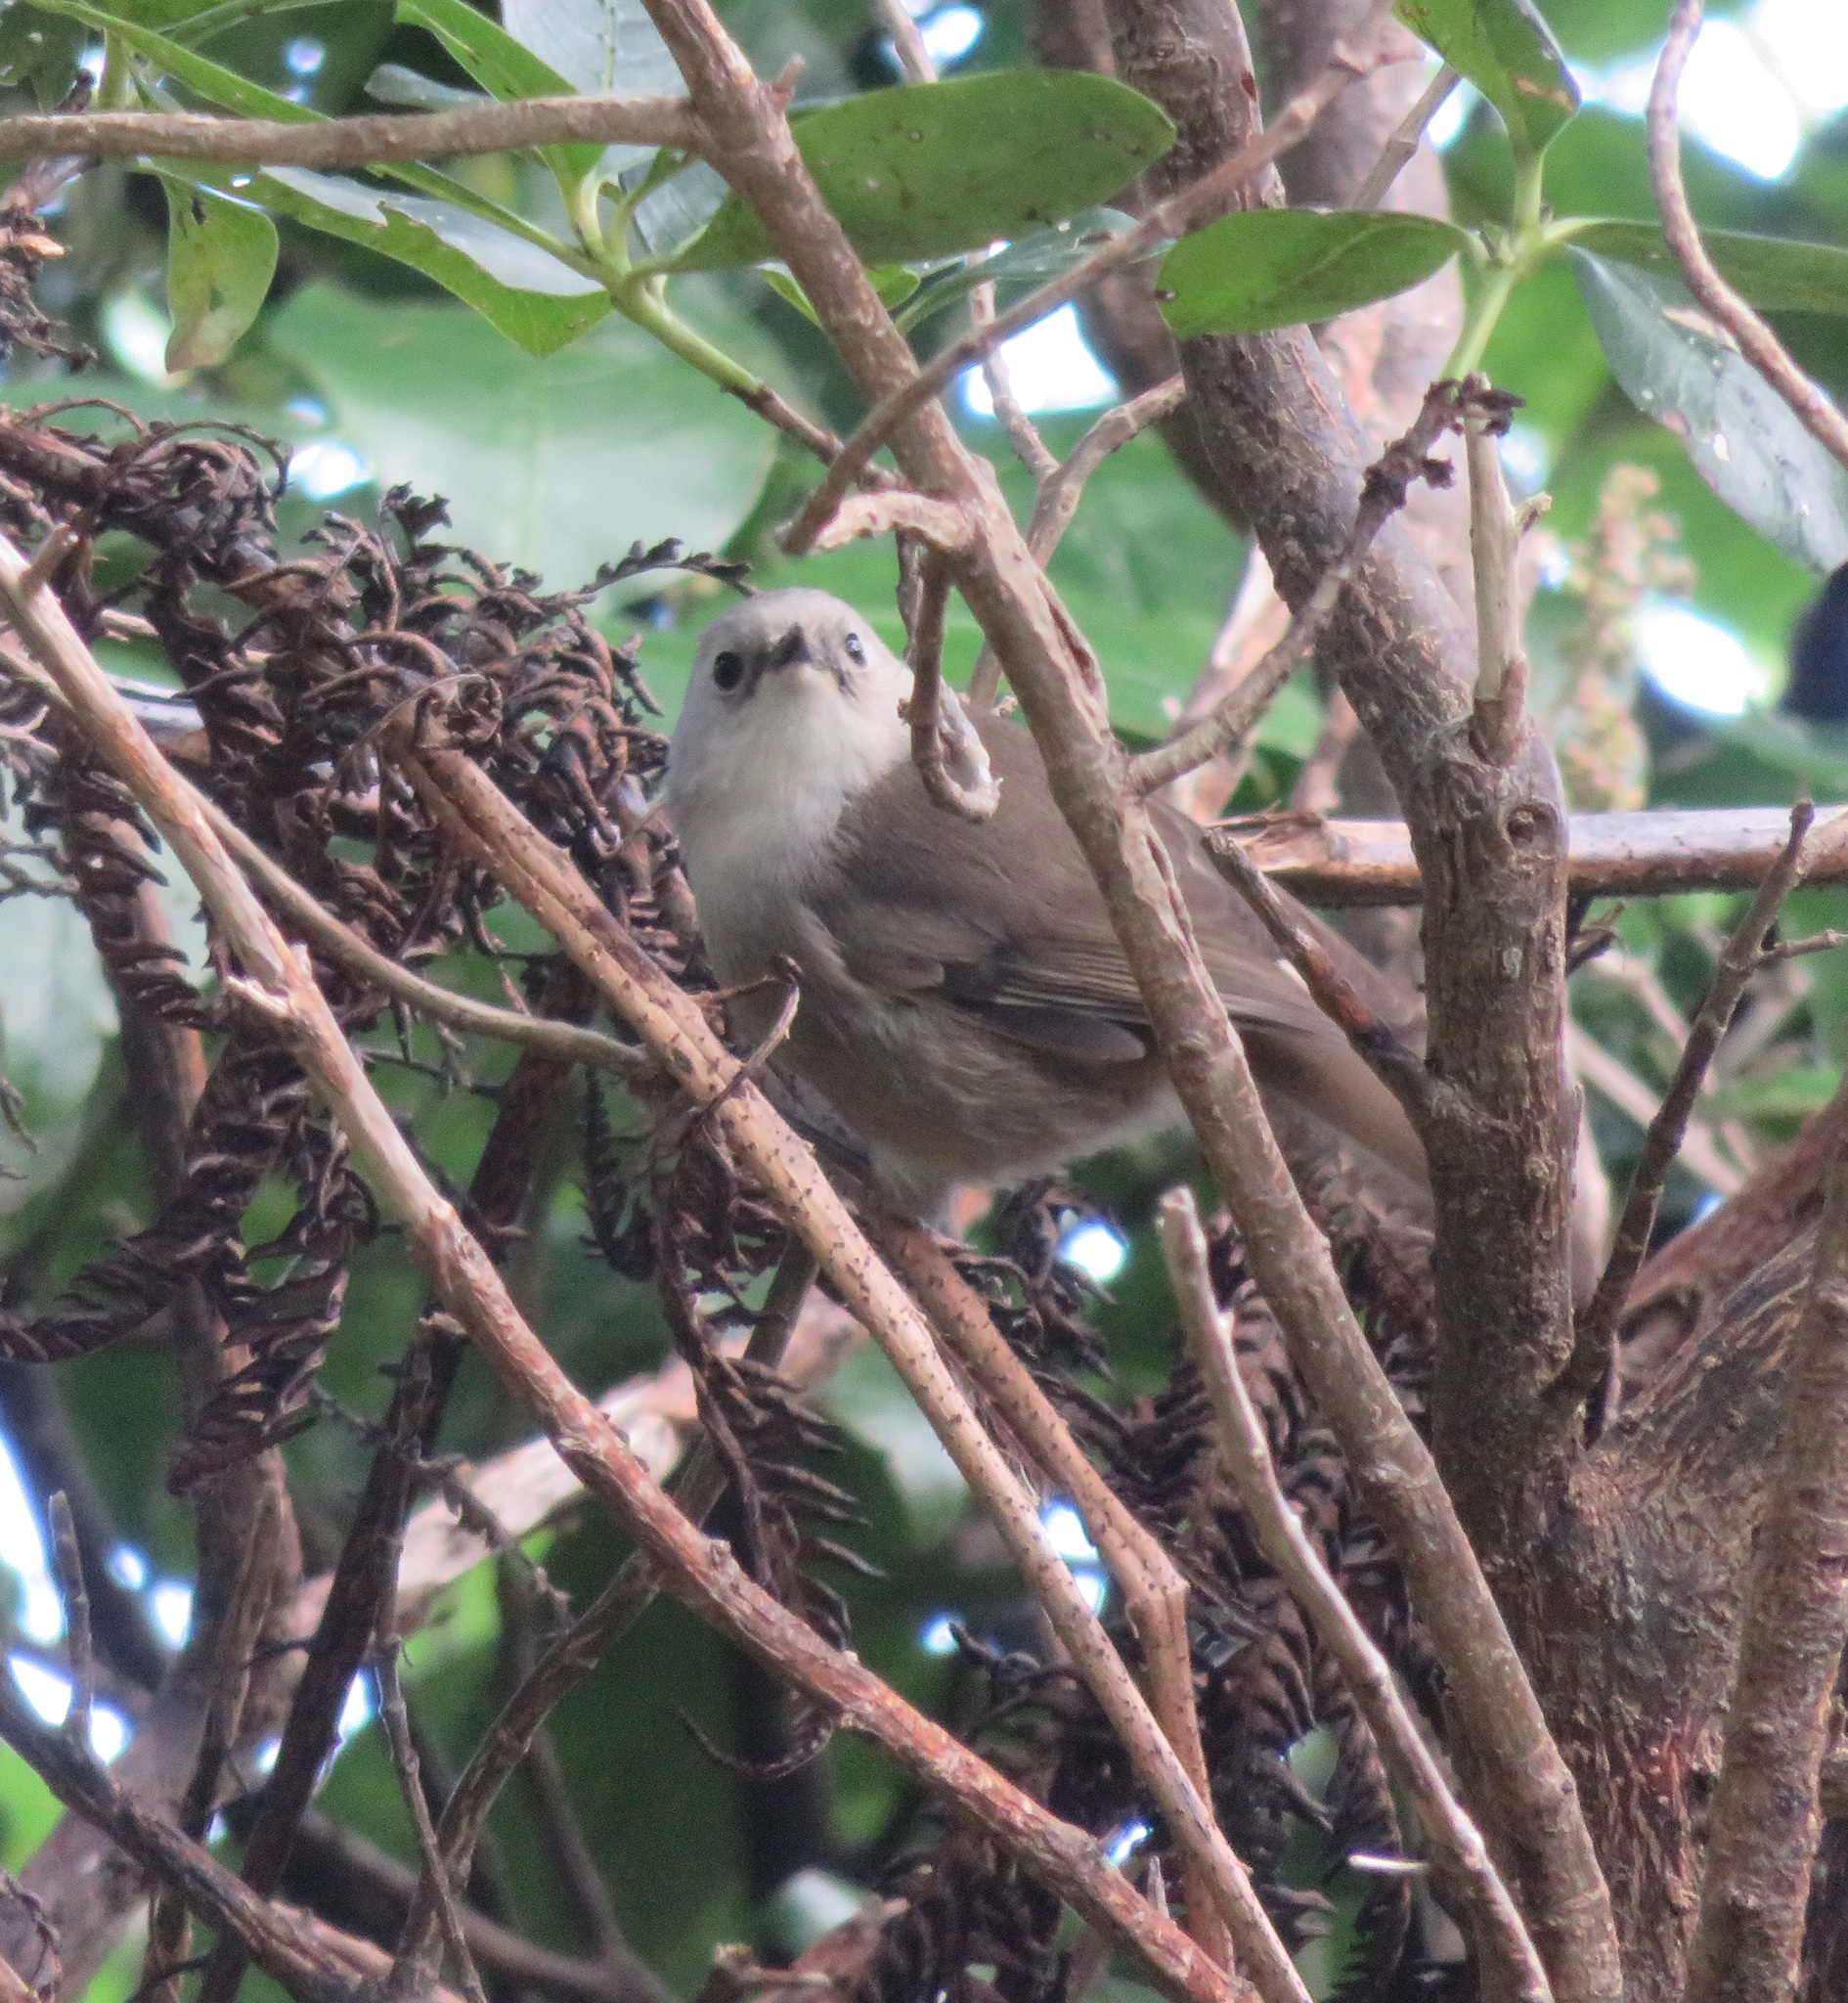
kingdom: Animalia
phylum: Chordata
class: Aves
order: Passeriformes
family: Acanthizidae
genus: Mohoua
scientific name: Mohoua albicilla
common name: Whitehead
